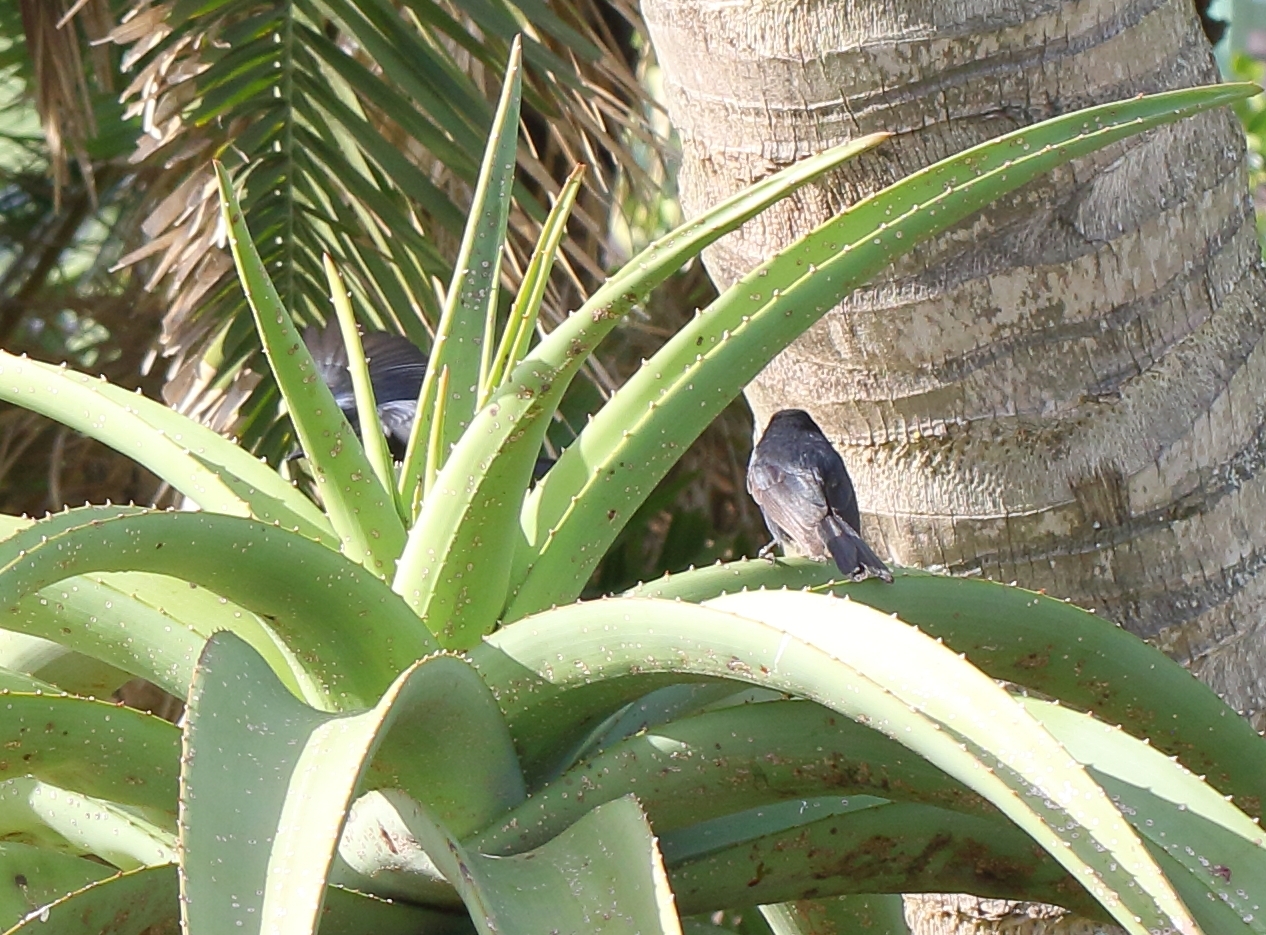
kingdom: Animalia
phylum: Chordata
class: Aves
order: Passeriformes
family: Muscicapidae
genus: Melaenornis
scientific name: Melaenornis pammelaina
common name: Southern black flycatcher
